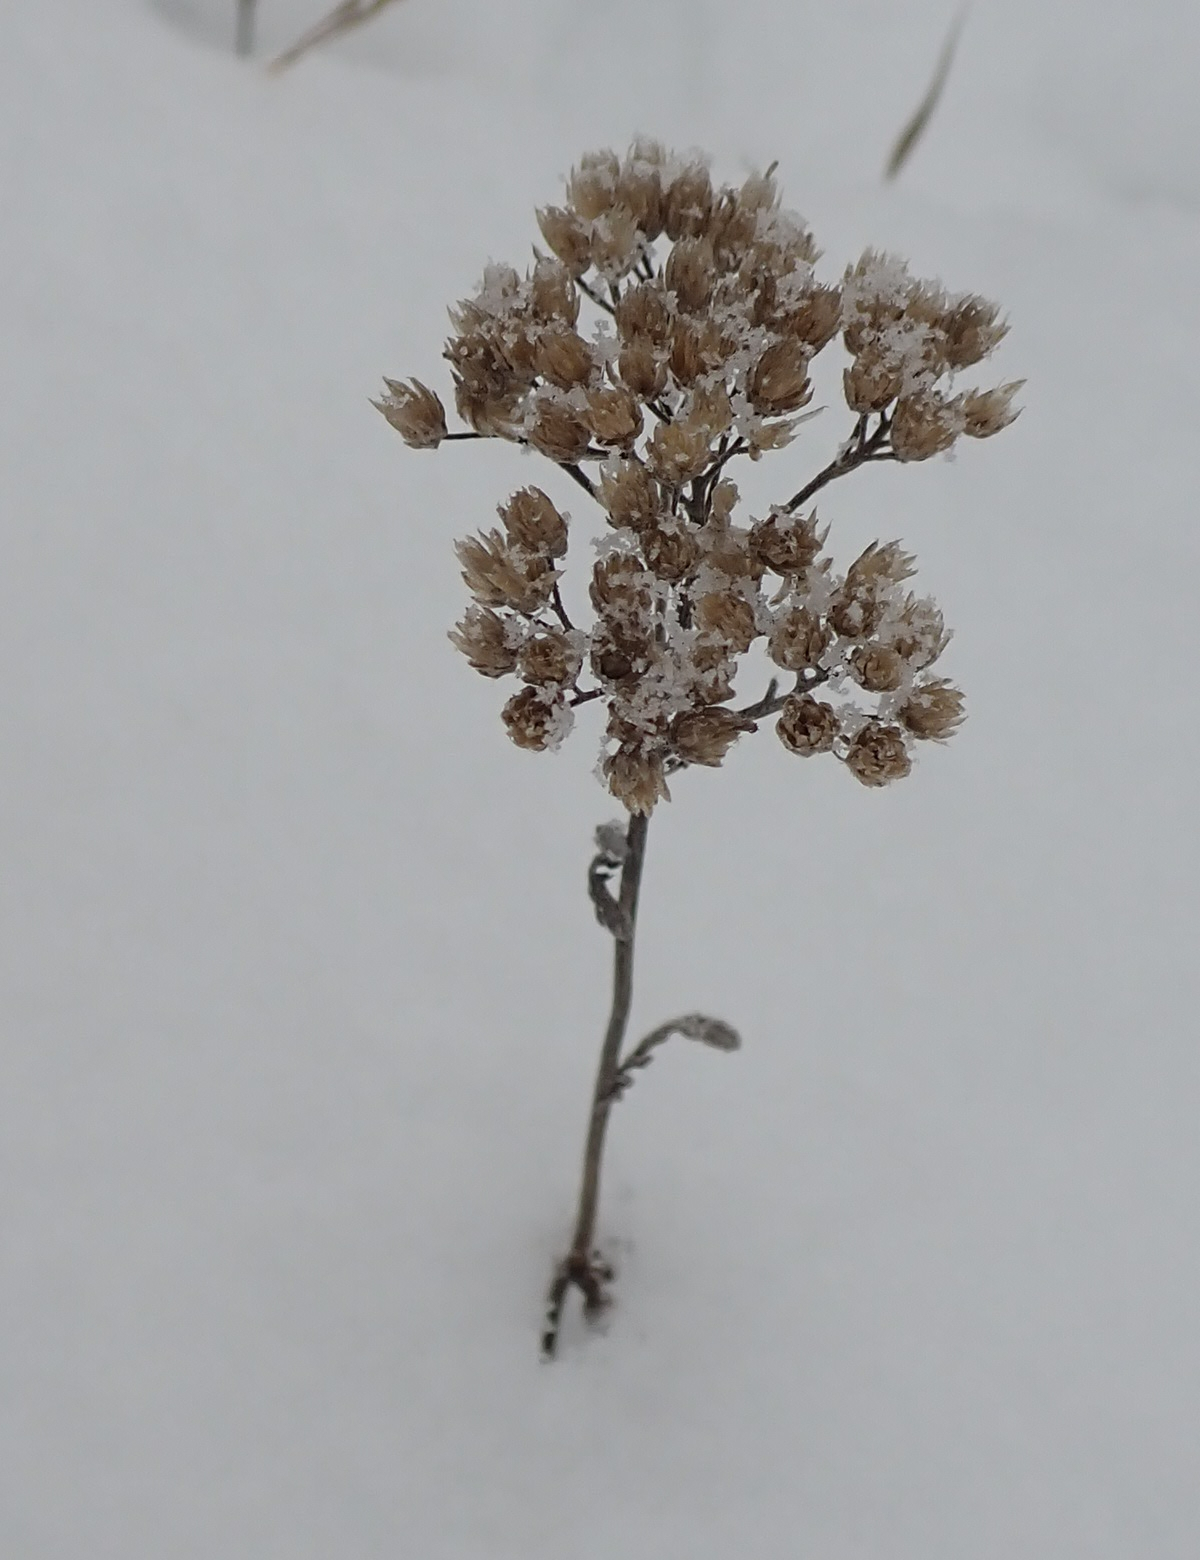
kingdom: Plantae
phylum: Tracheophyta
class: Magnoliopsida
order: Asterales
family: Asteraceae
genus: Achillea
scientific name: Achillea millefolium
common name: Yarrow
